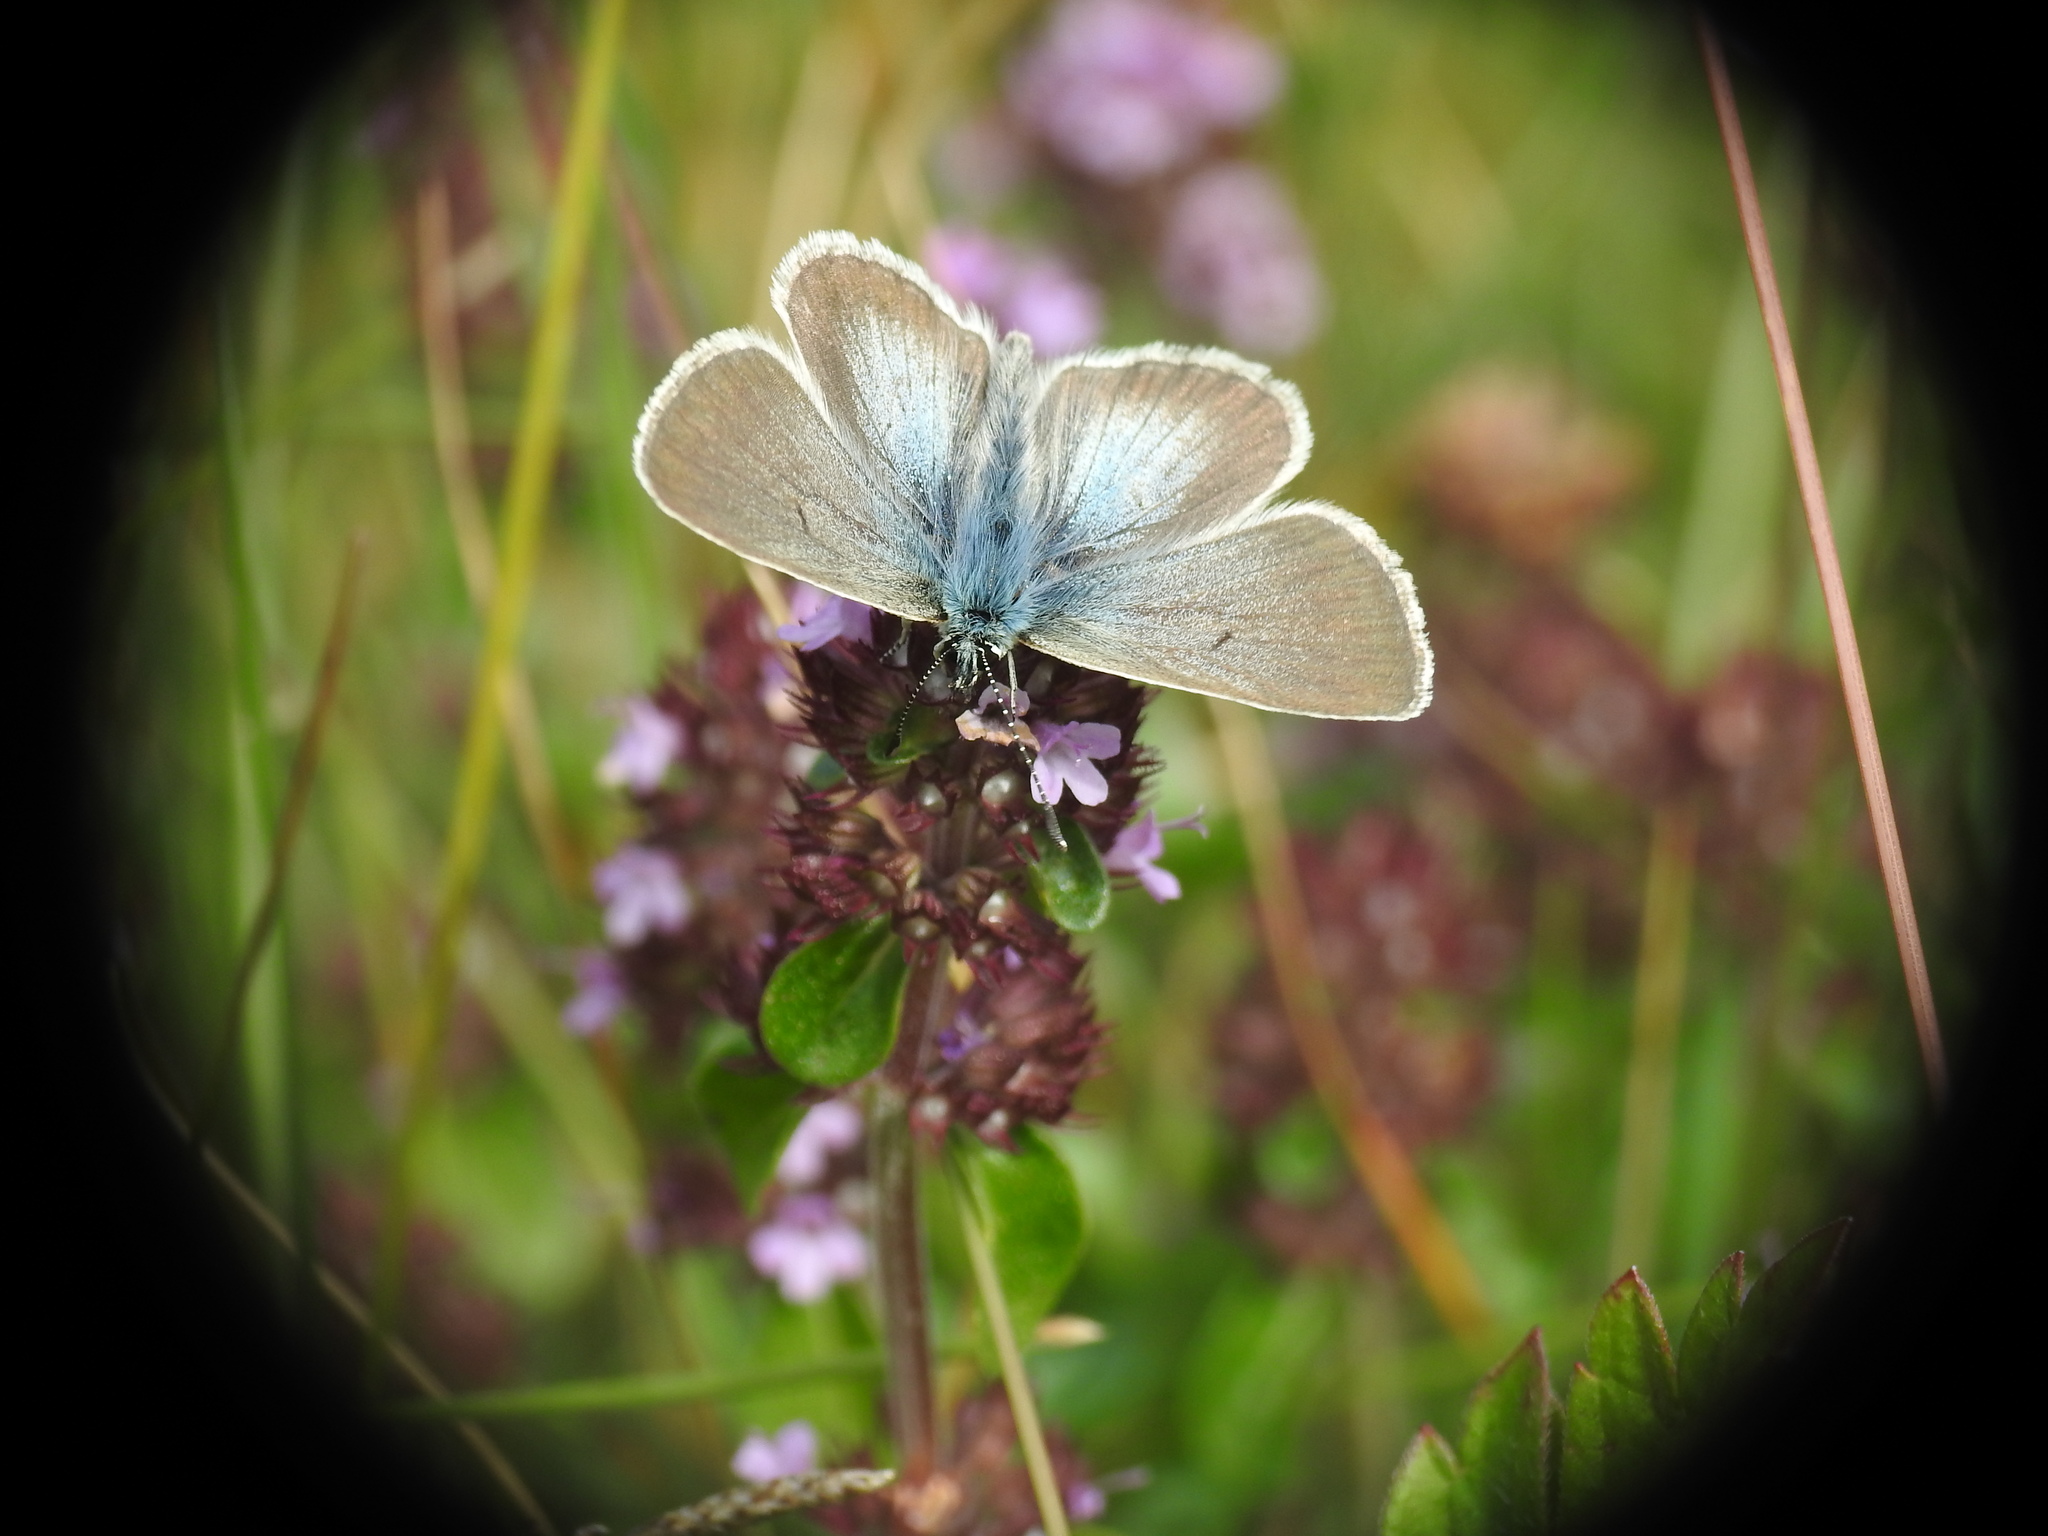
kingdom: Animalia
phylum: Arthropoda
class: Insecta
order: Lepidoptera
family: Lycaenidae
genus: Pseudoaricia
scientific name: Pseudoaricia nicias
